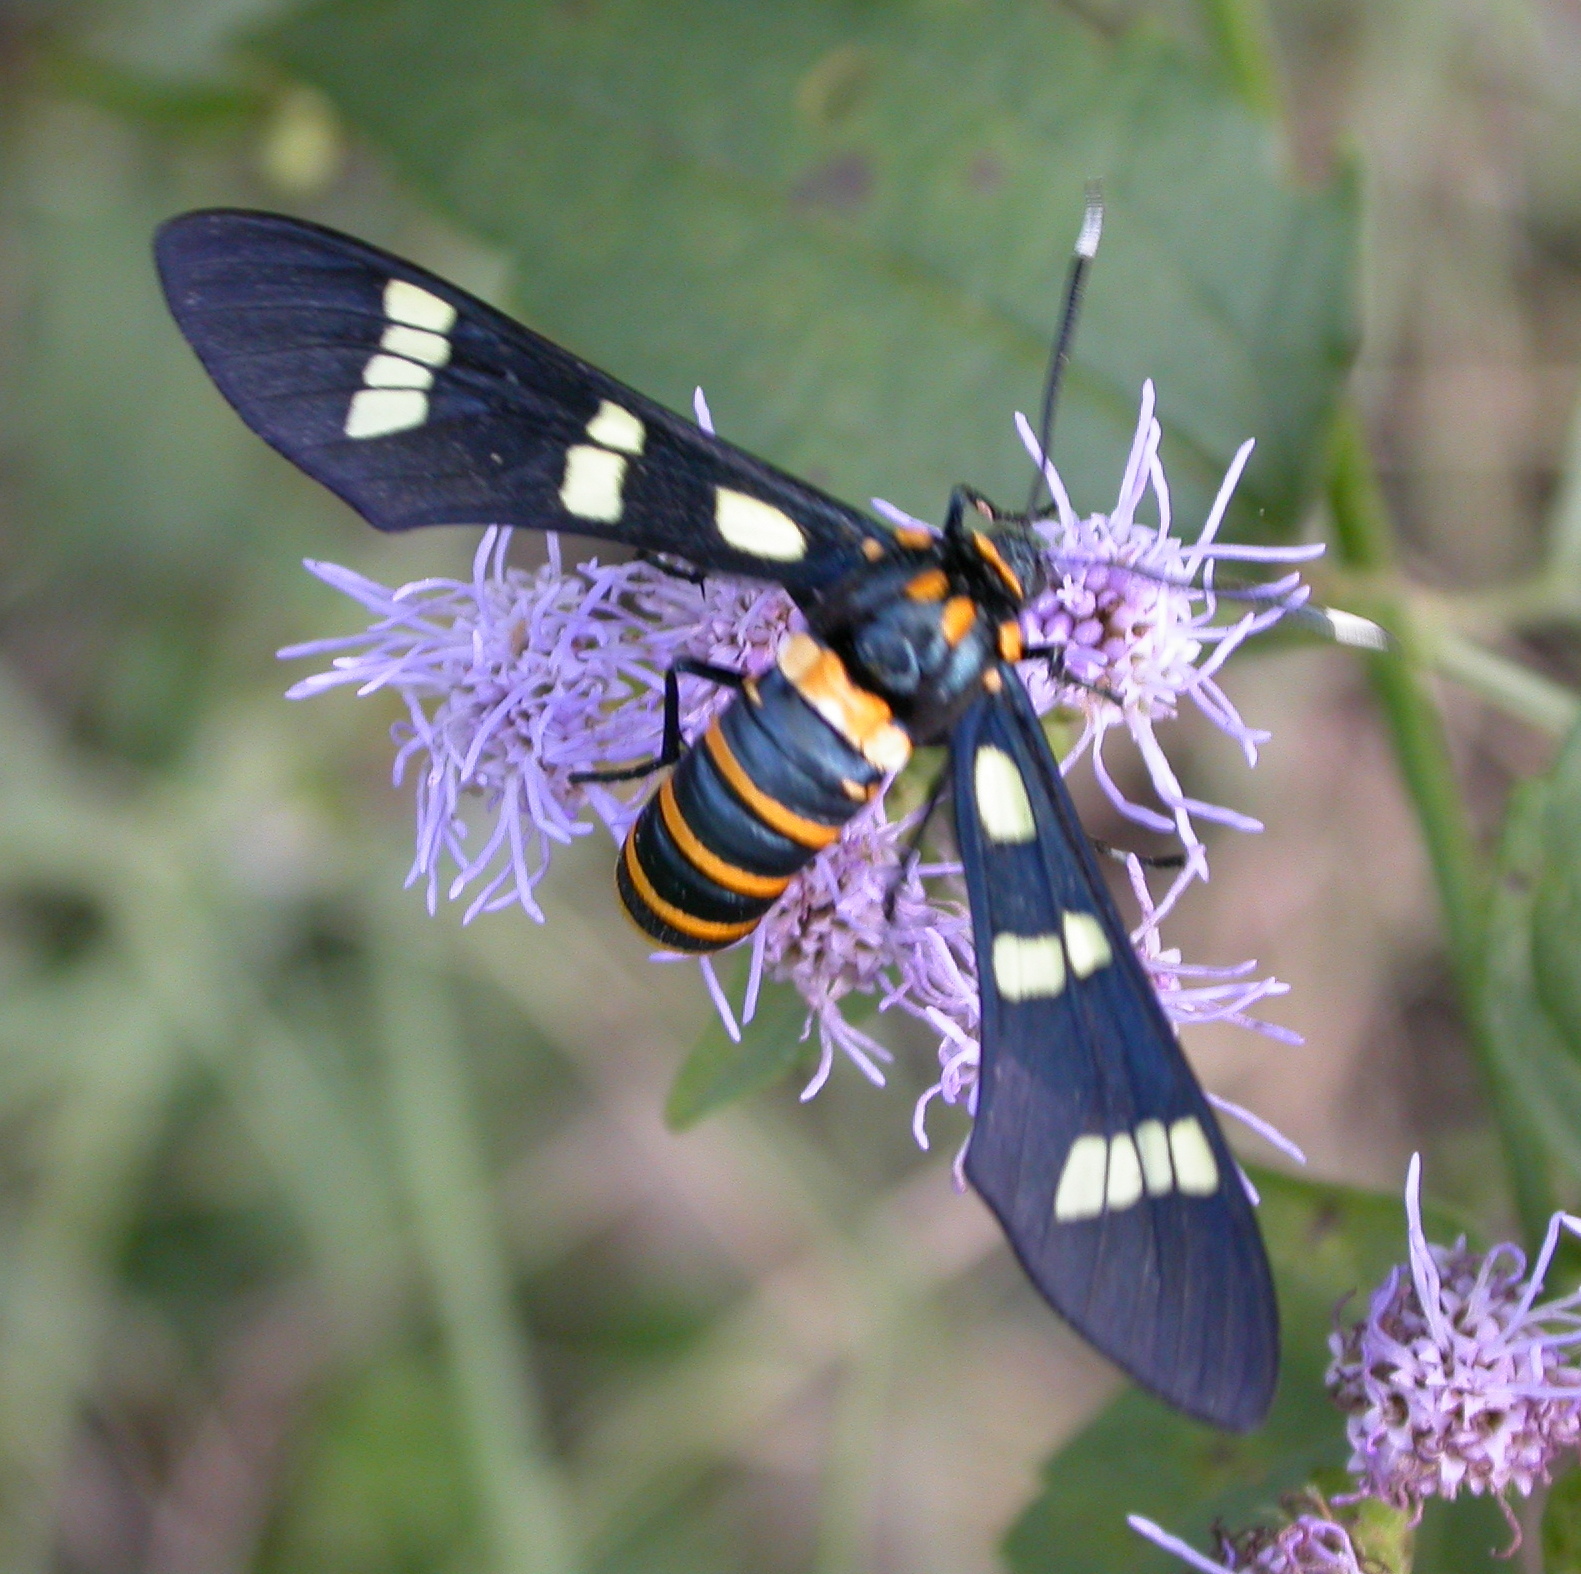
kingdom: Animalia
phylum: Arthropoda
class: Insecta
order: Lepidoptera
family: Erebidae
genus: Syntomeida
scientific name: Syntomeida melanthus
